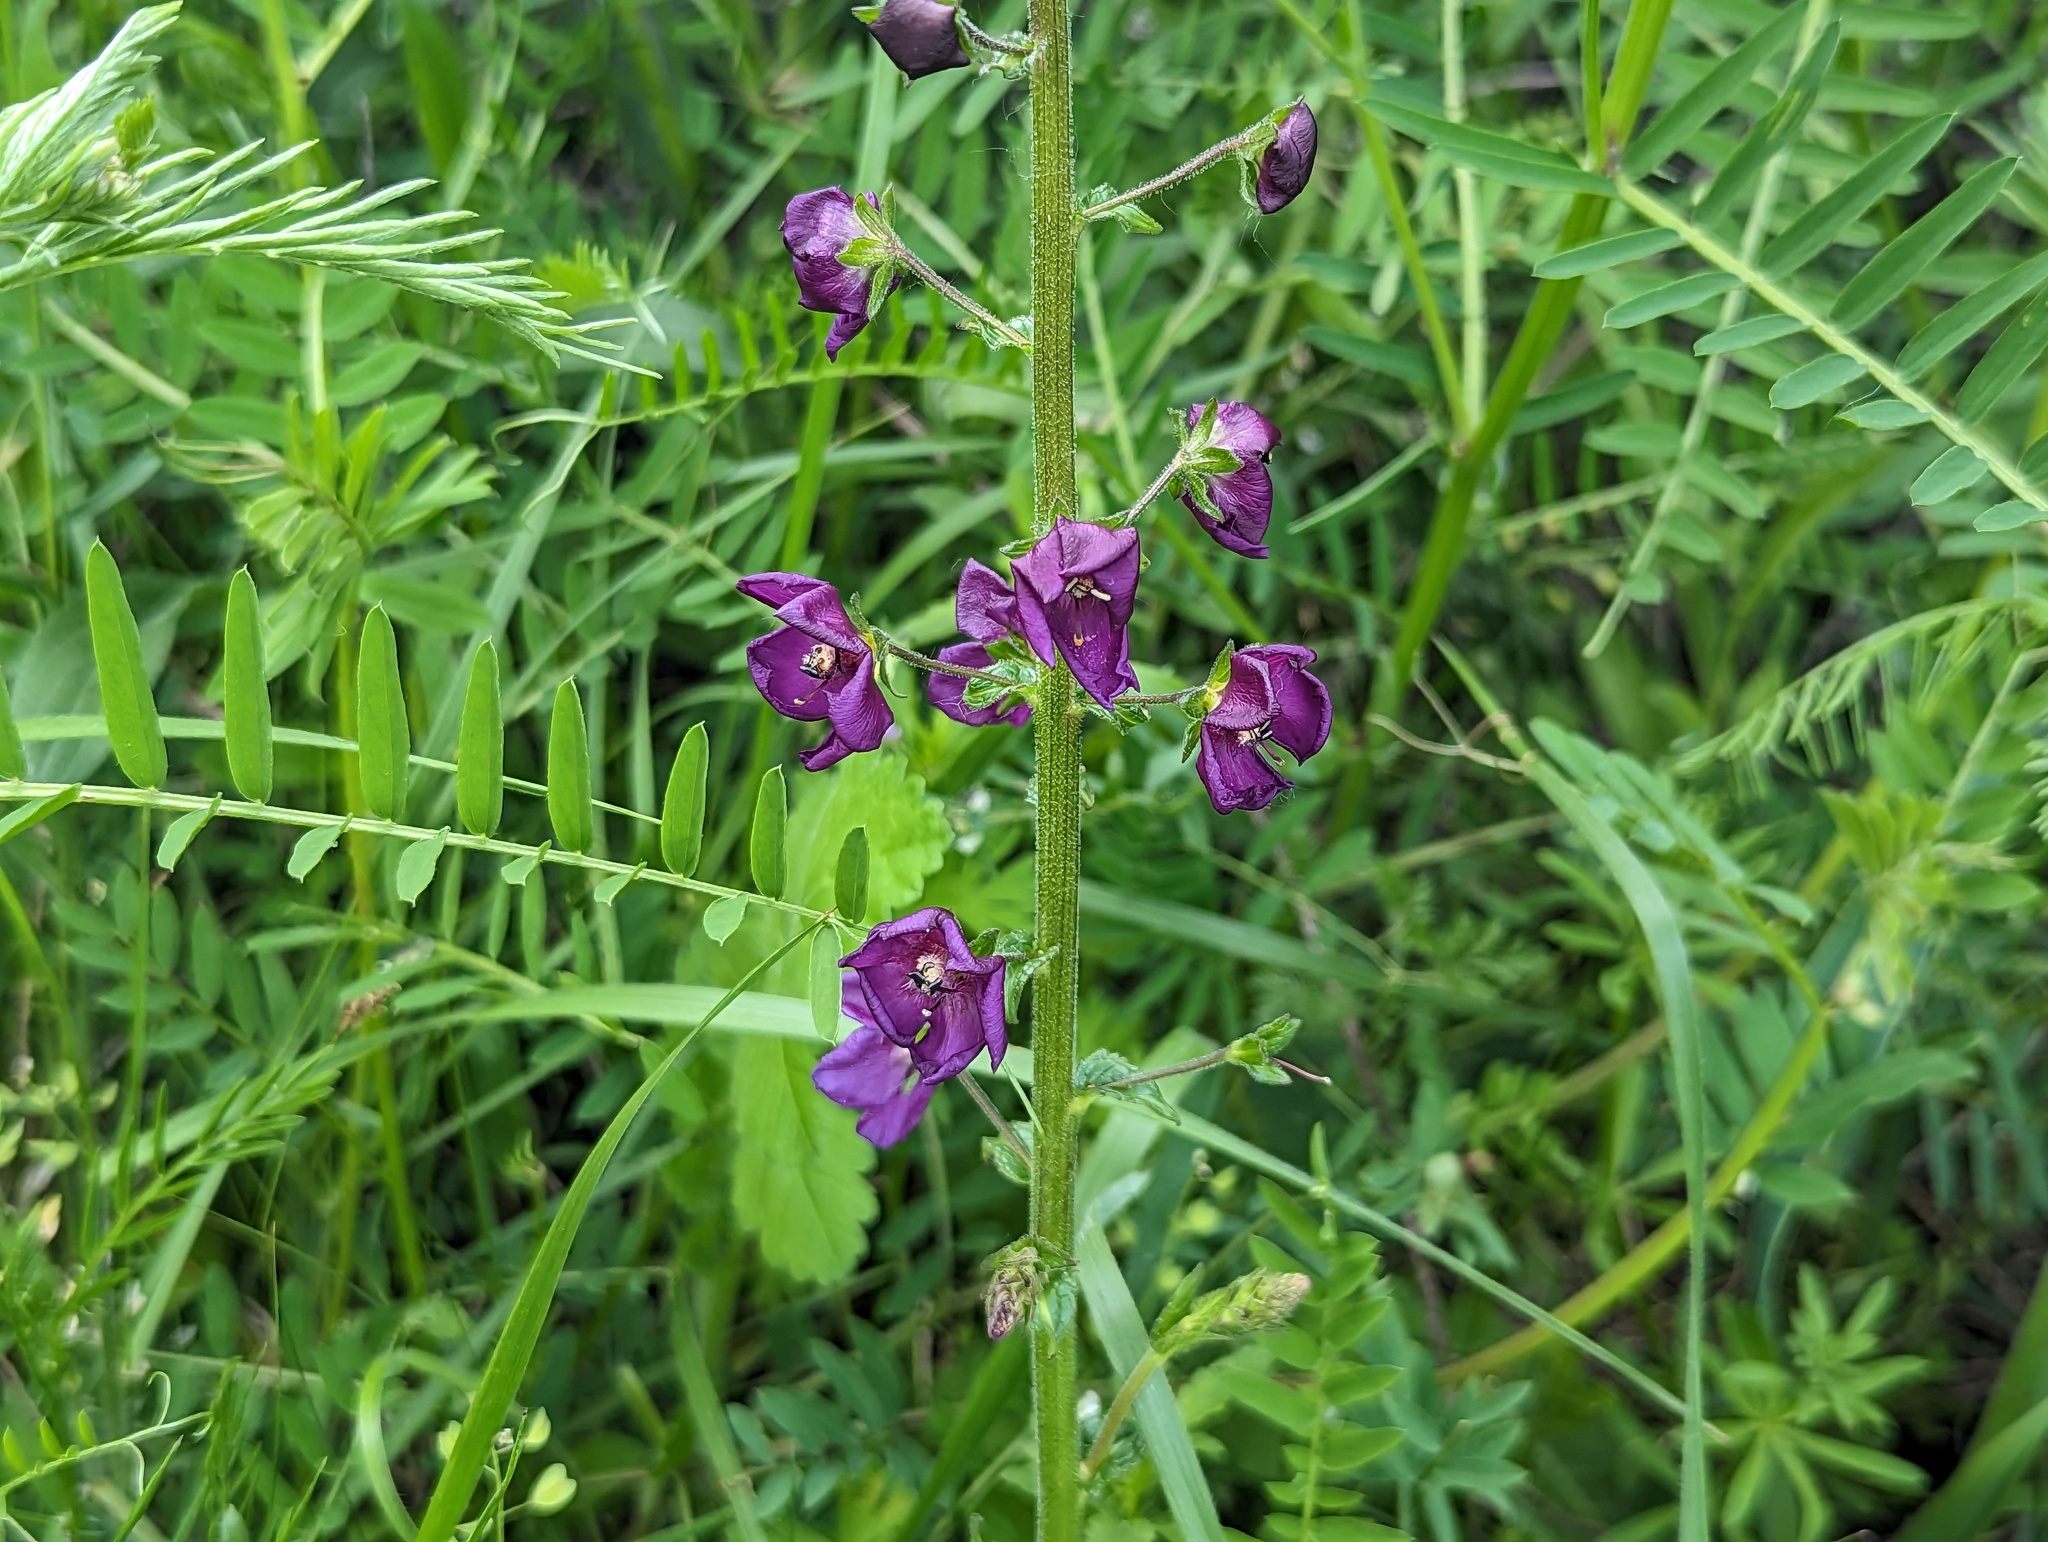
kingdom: Plantae
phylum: Tracheophyta
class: Magnoliopsida
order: Lamiales
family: Scrophulariaceae
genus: Verbascum
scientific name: Verbascum phoeniceum
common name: Purple mullein
